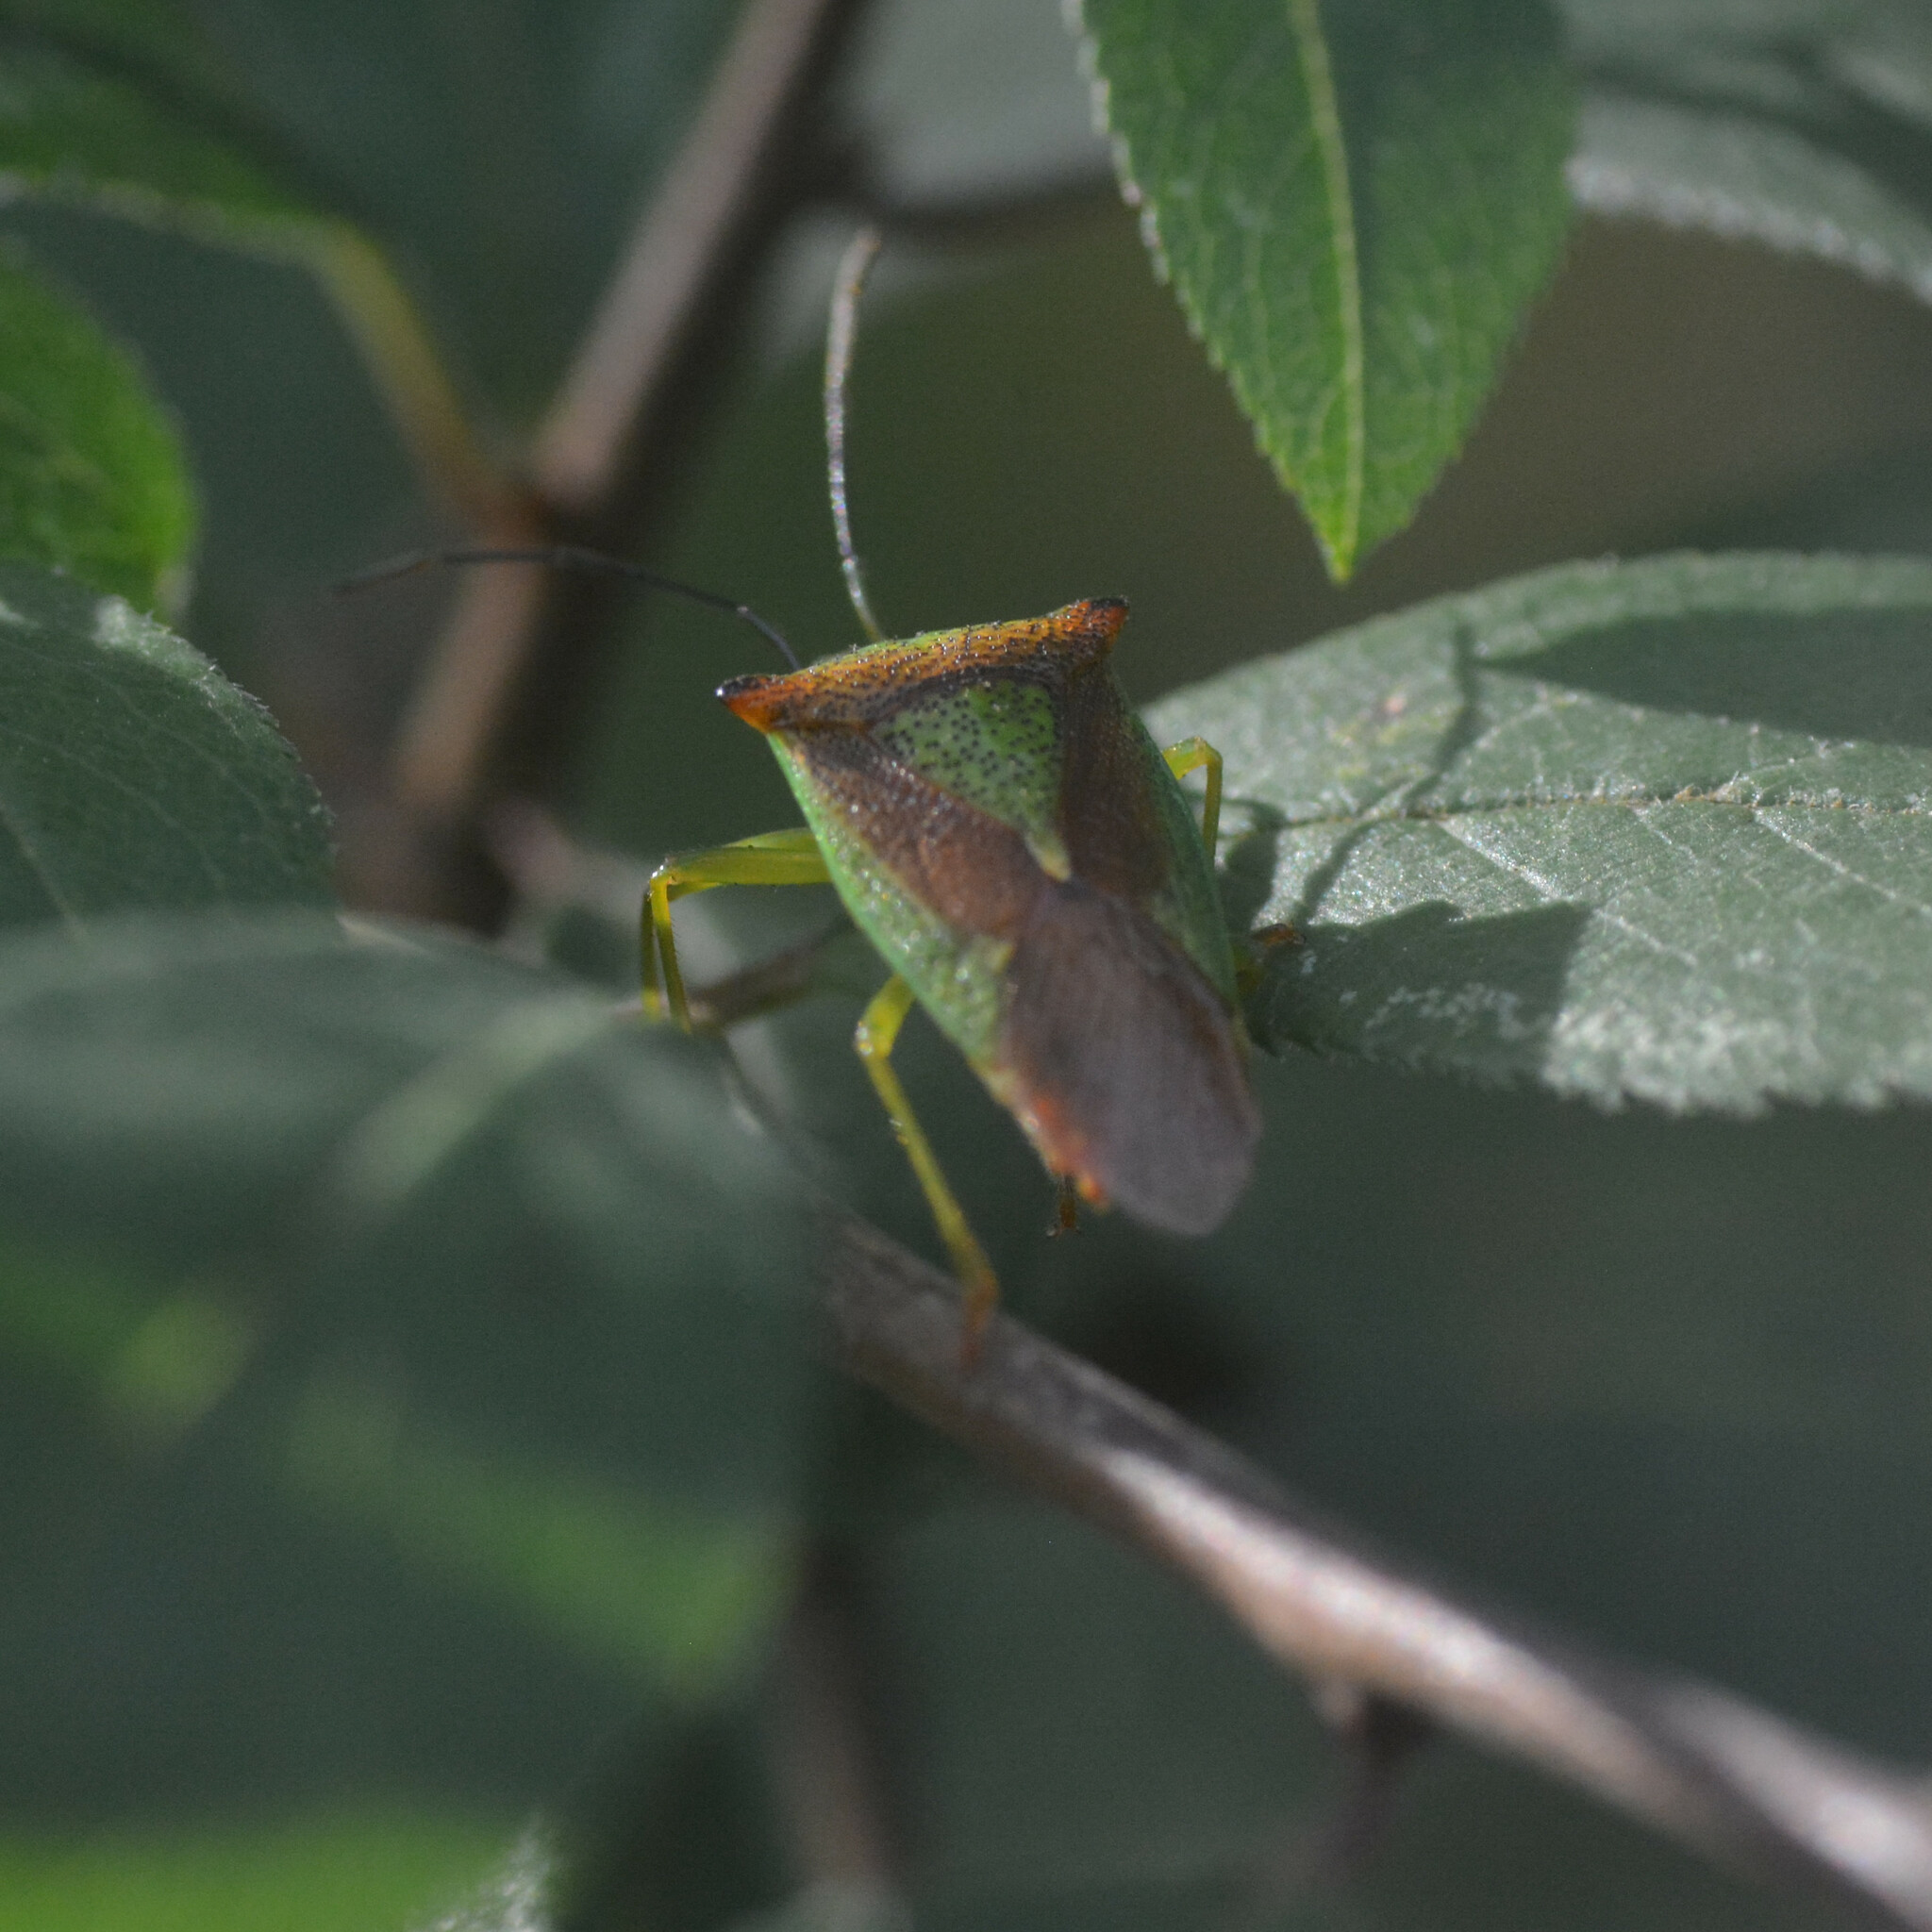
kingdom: Animalia
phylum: Arthropoda
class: Insecta
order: Hemiptera
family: Acanthosomatidae
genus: Acanthosoma
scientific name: Acanthosoma haemorrhoidale
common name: Hawthorn shieldbug
